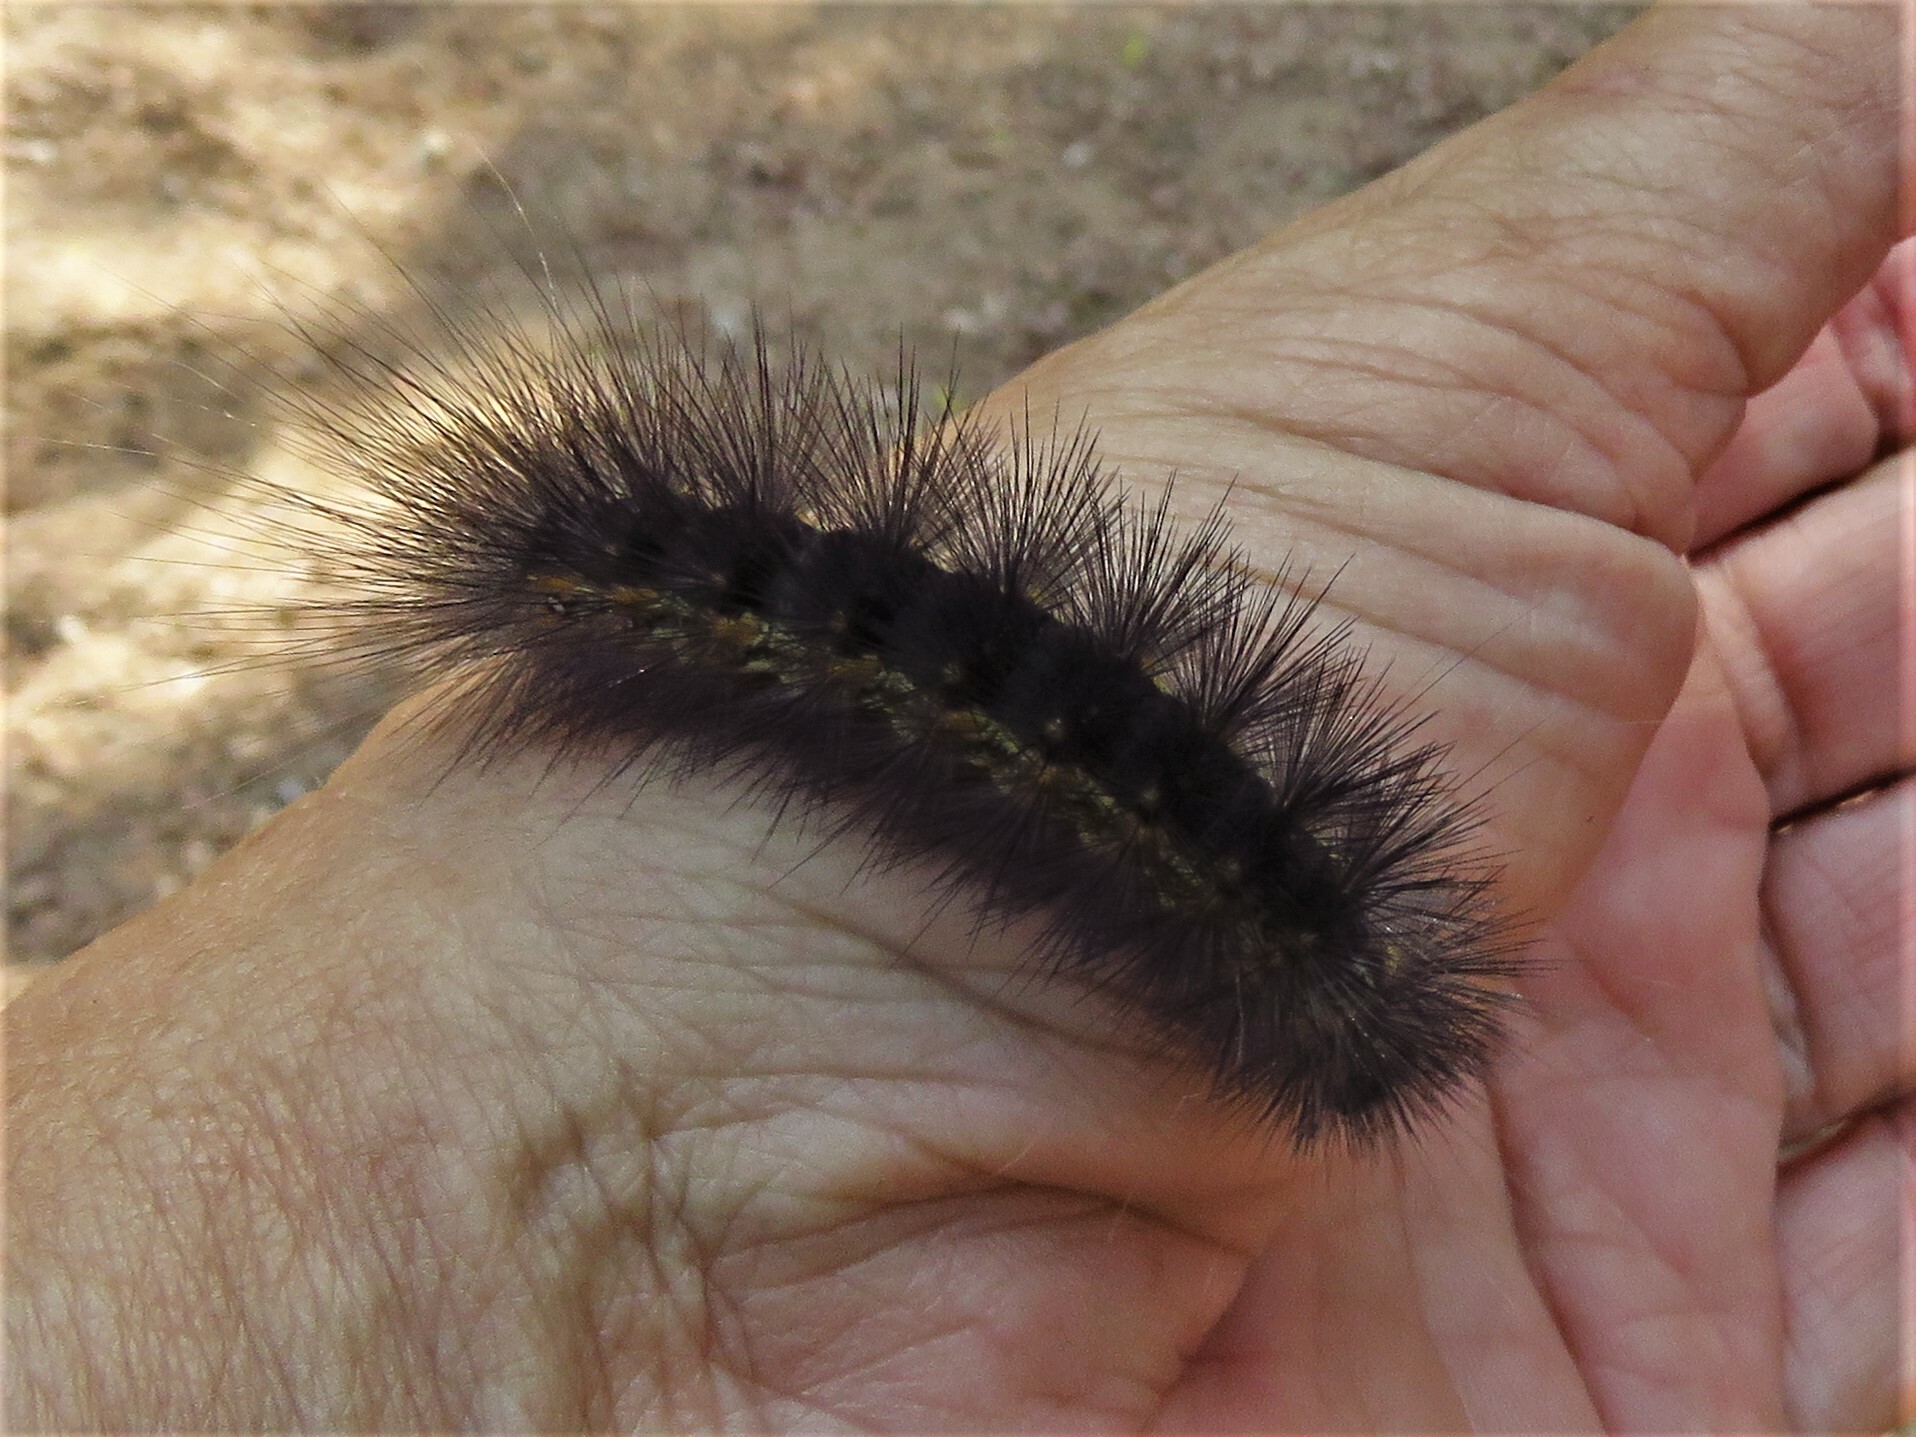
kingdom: Animalia
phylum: Arthropoda
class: Insecta
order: Lepidoptera
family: Erebidae
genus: Estigmene
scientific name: Estigmene acrea
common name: Salt marsh moth
